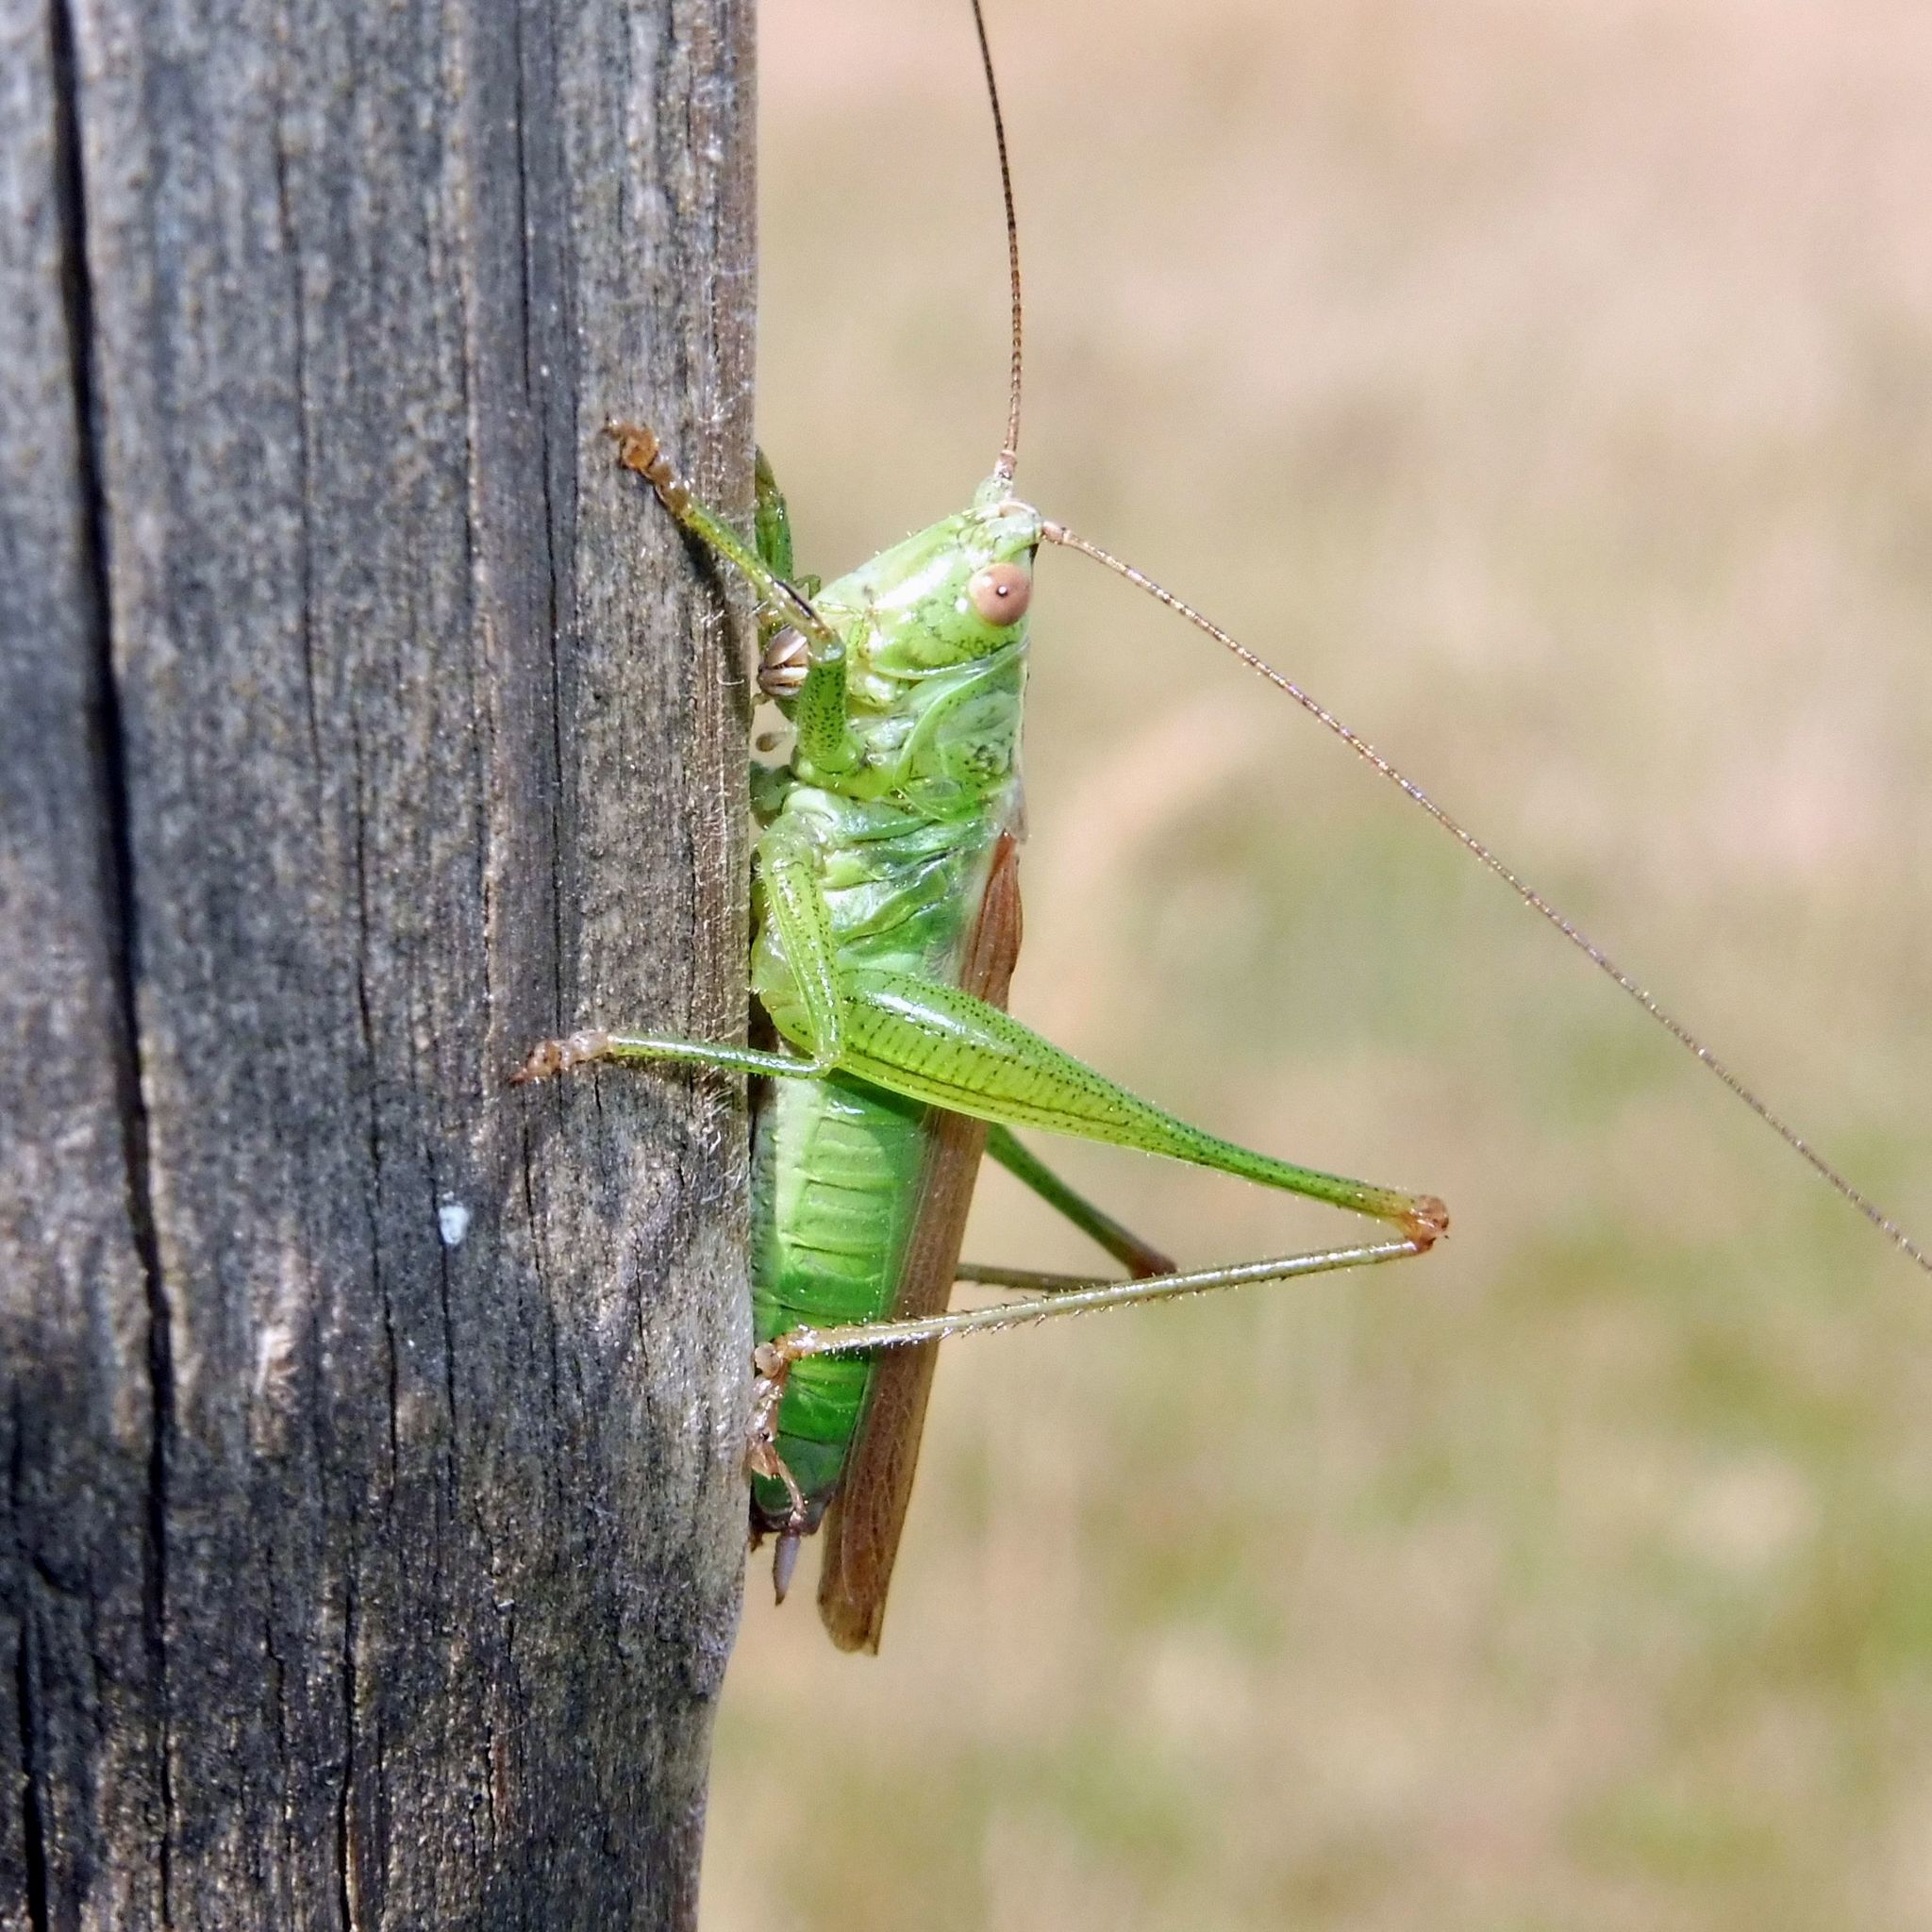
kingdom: Animalia
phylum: Arthropoda
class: Insecta
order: Orthoptera
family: Tettigoniidae
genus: Conocephalus
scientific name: Conocephalus fuscus
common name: Long-winged conehead
